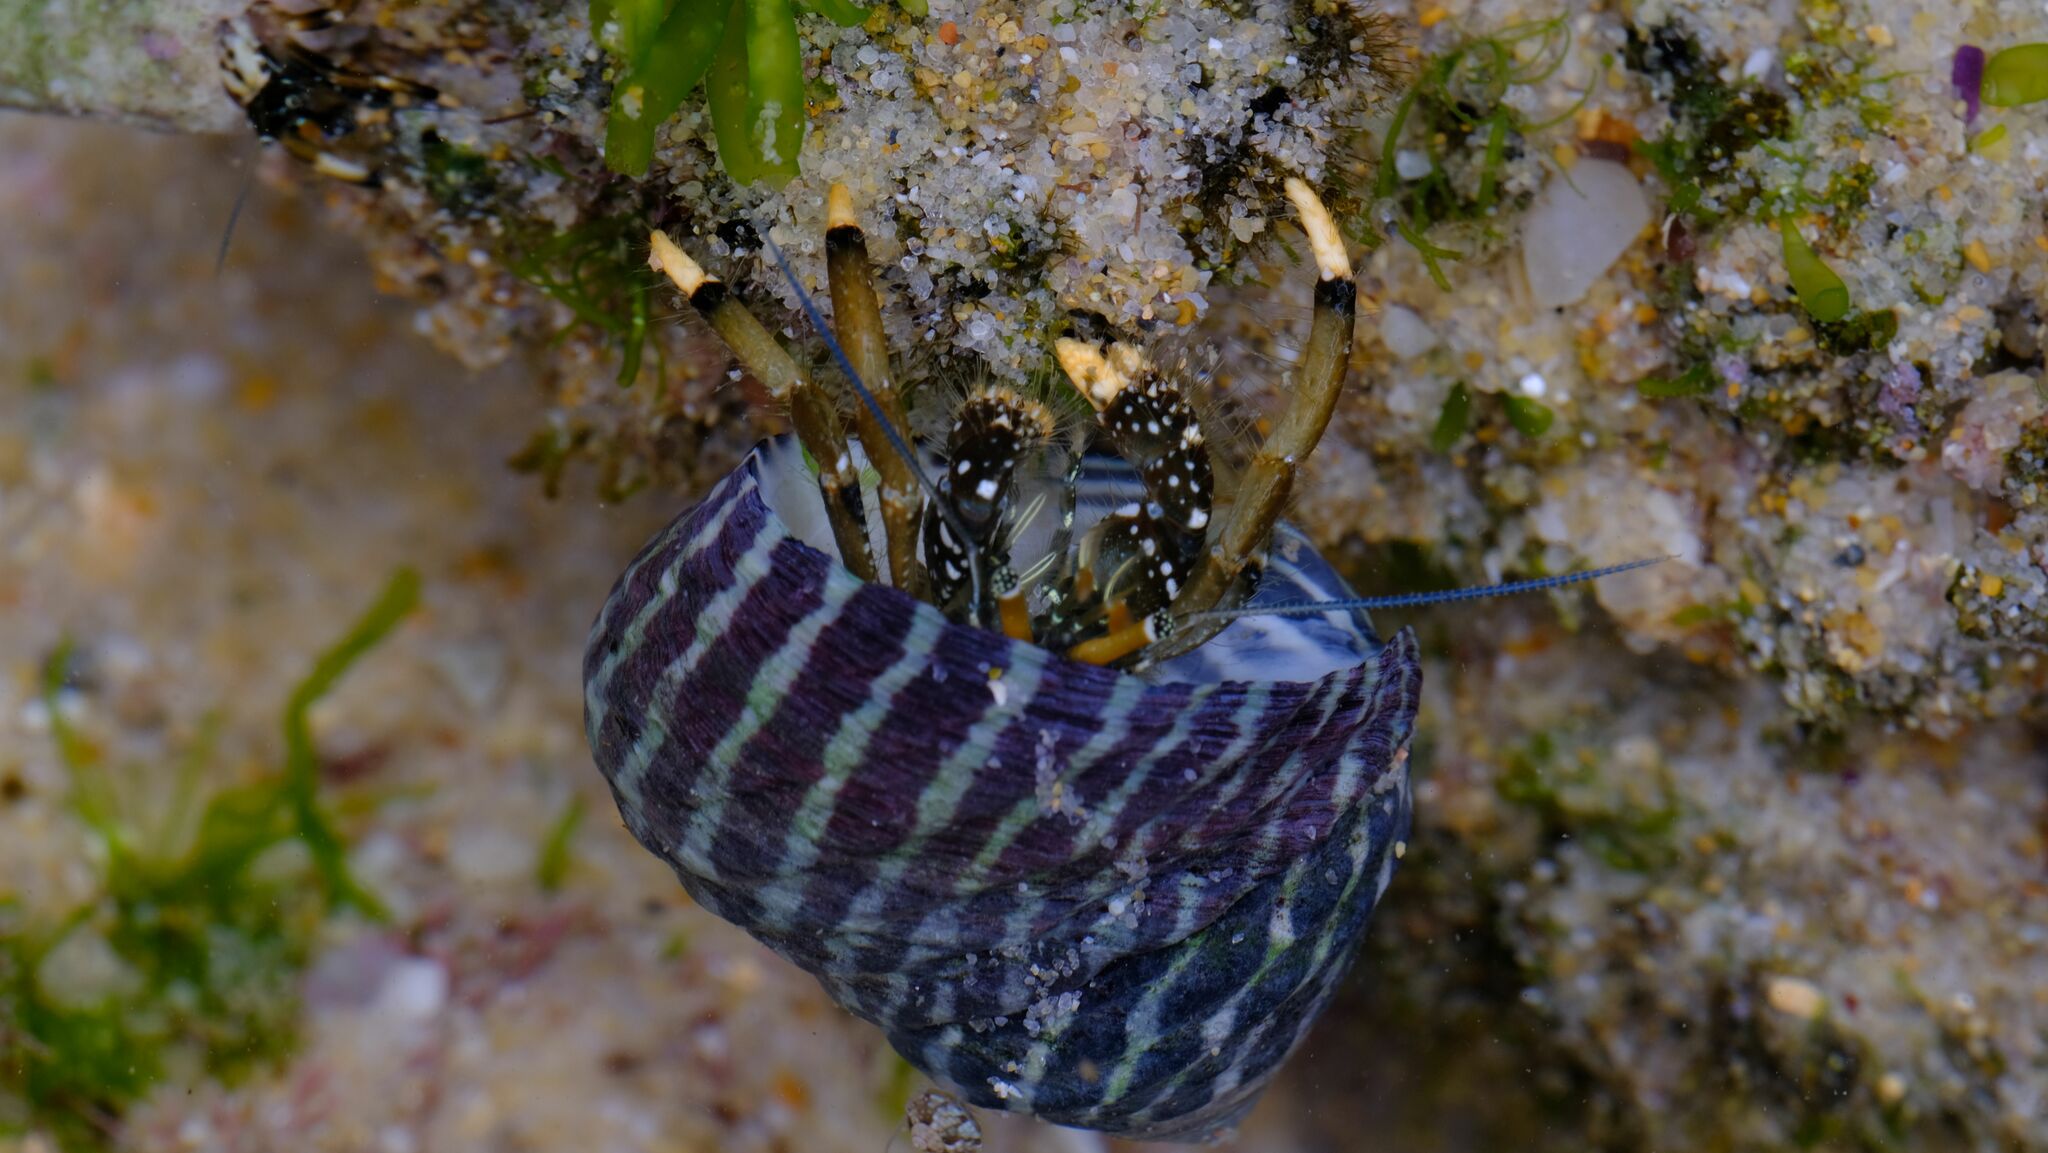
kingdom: Animalia
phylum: Arthropoda
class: Malacostraca
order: Decapoda
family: Diogenidae
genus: Clibanarius
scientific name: Clibanarius virescens
